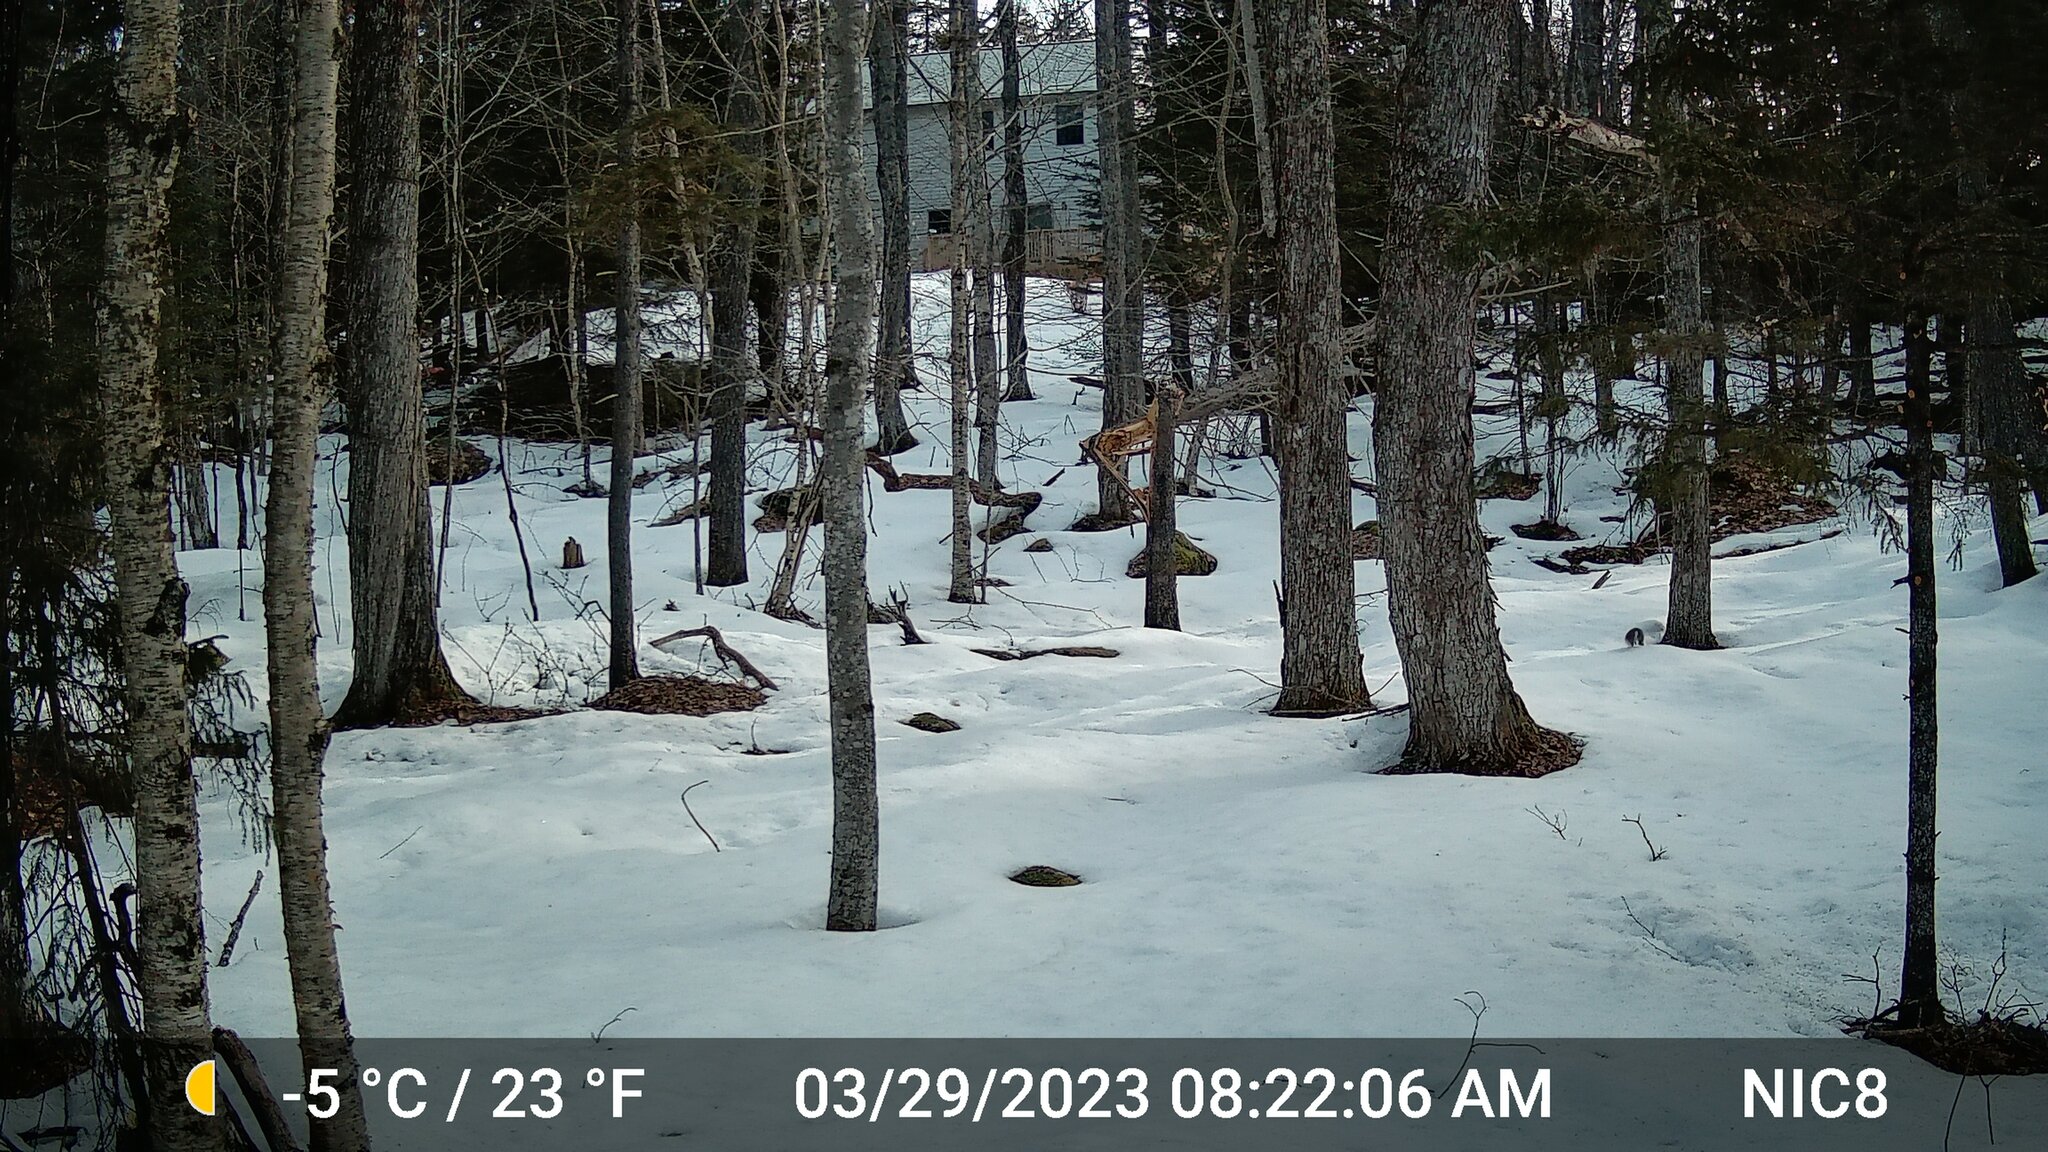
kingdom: Animalia
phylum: Chordata
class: Mammalia
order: Rodentia
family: Sciuridae
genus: Sciurus
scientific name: Sciurus carolinensis
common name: Eastern gray squirrel
